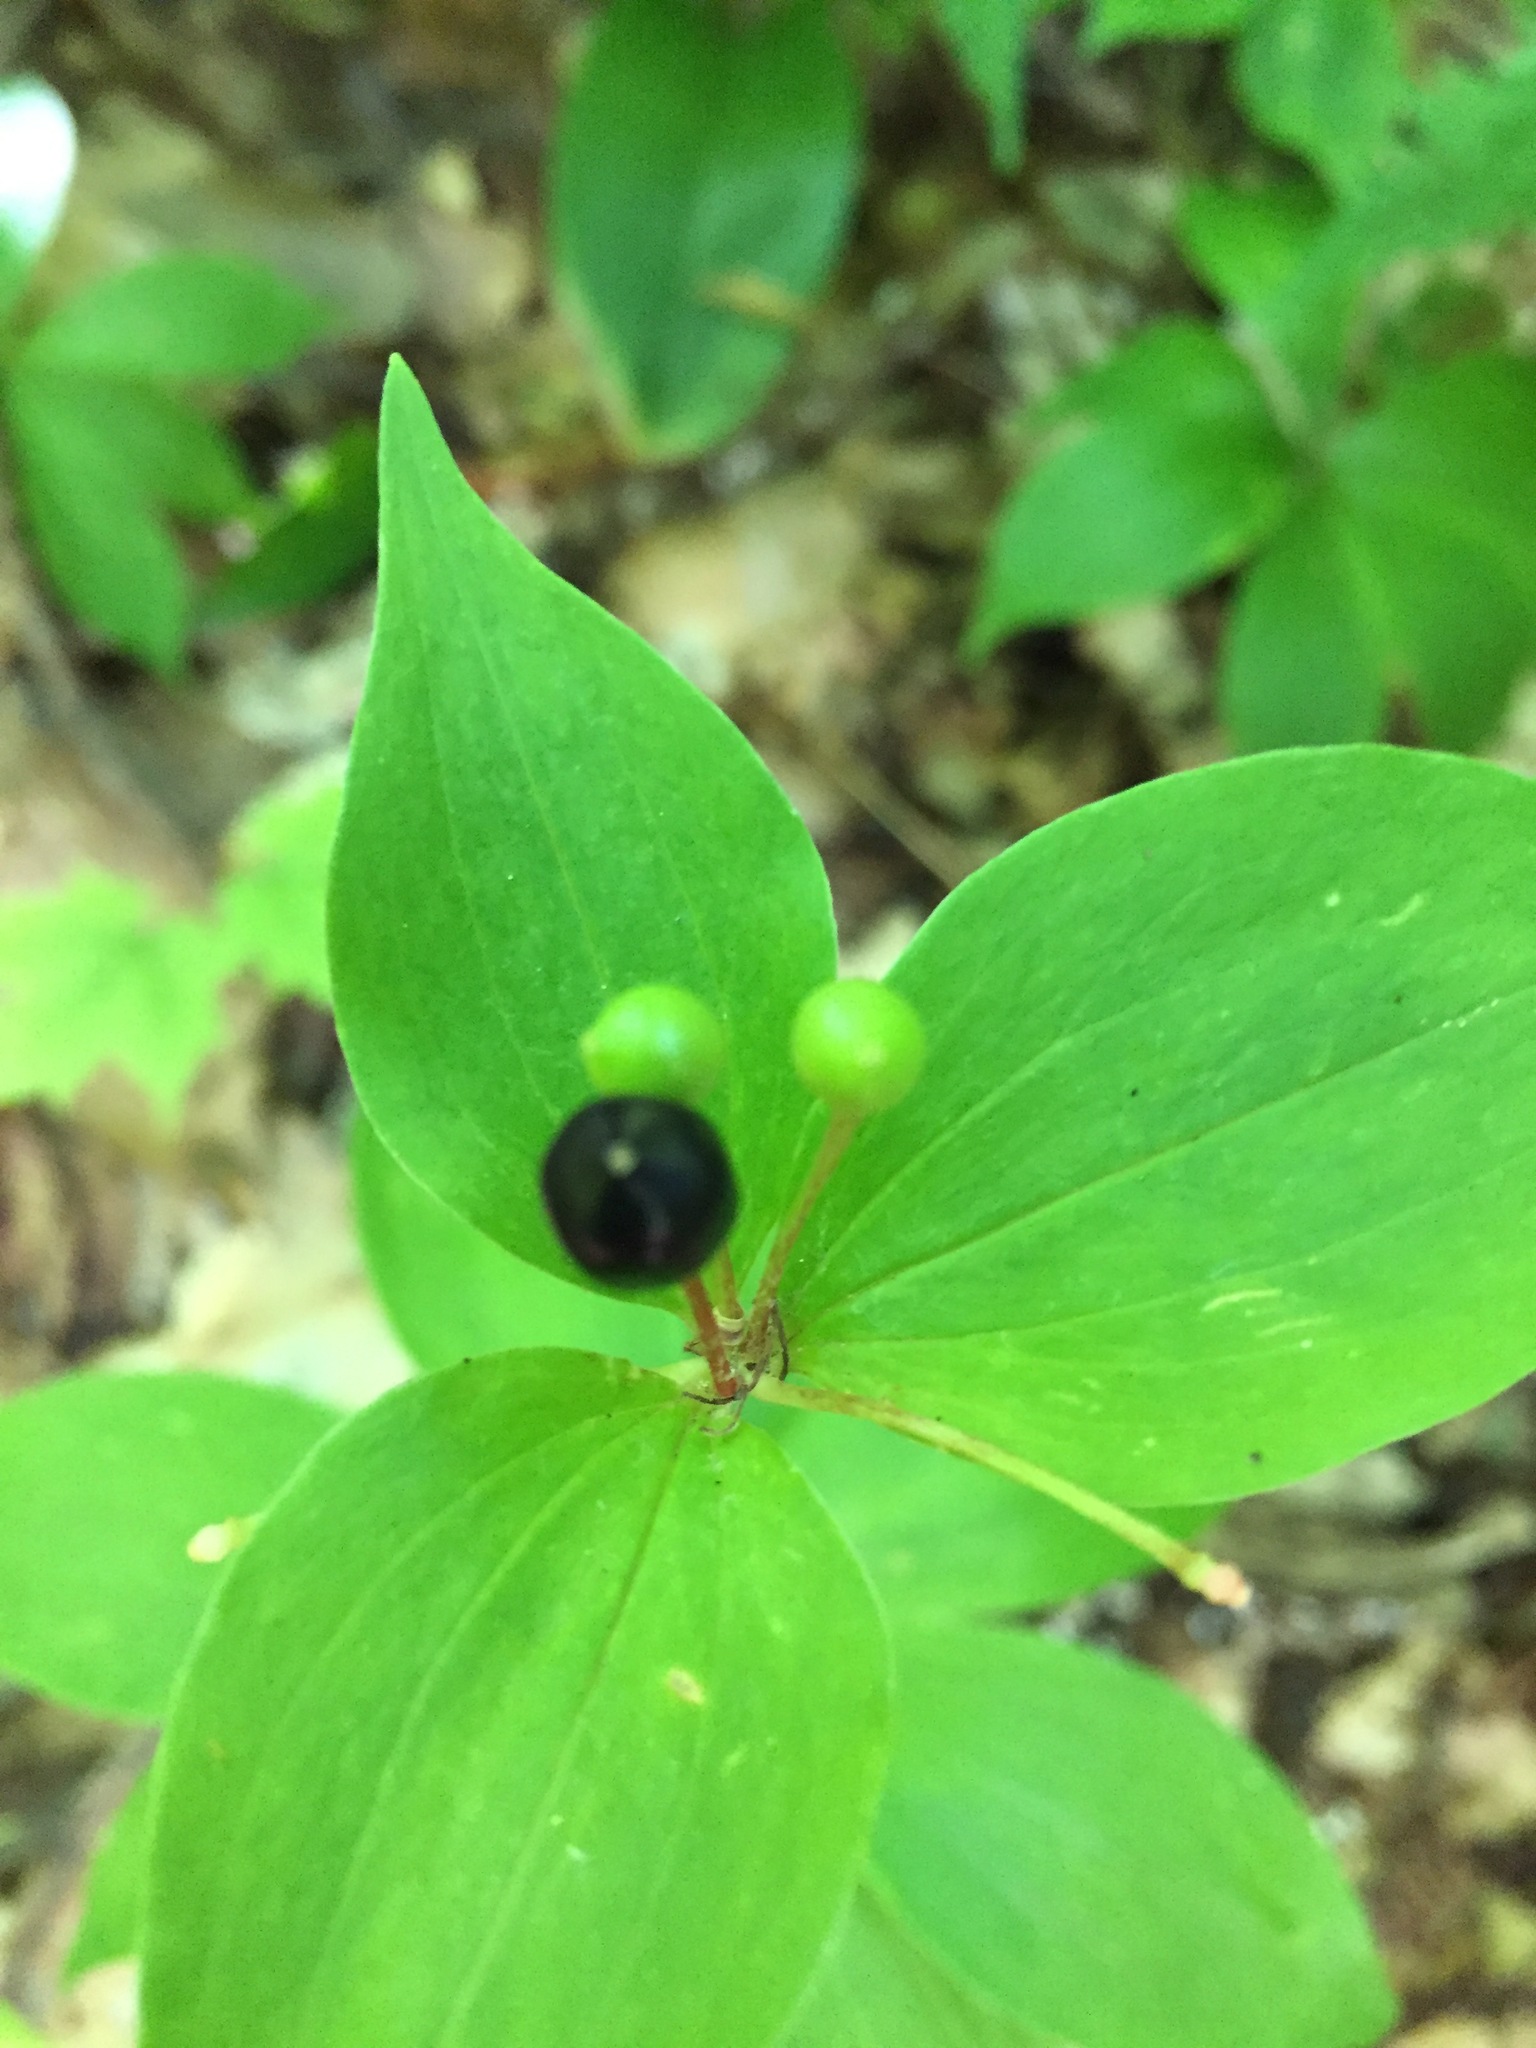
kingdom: Plantae
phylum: Tracheophyta
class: Liliopsida
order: Liliales
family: Liliaceae
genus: Medeola
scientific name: Medeola virginiana
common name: Indian cucumber-root
